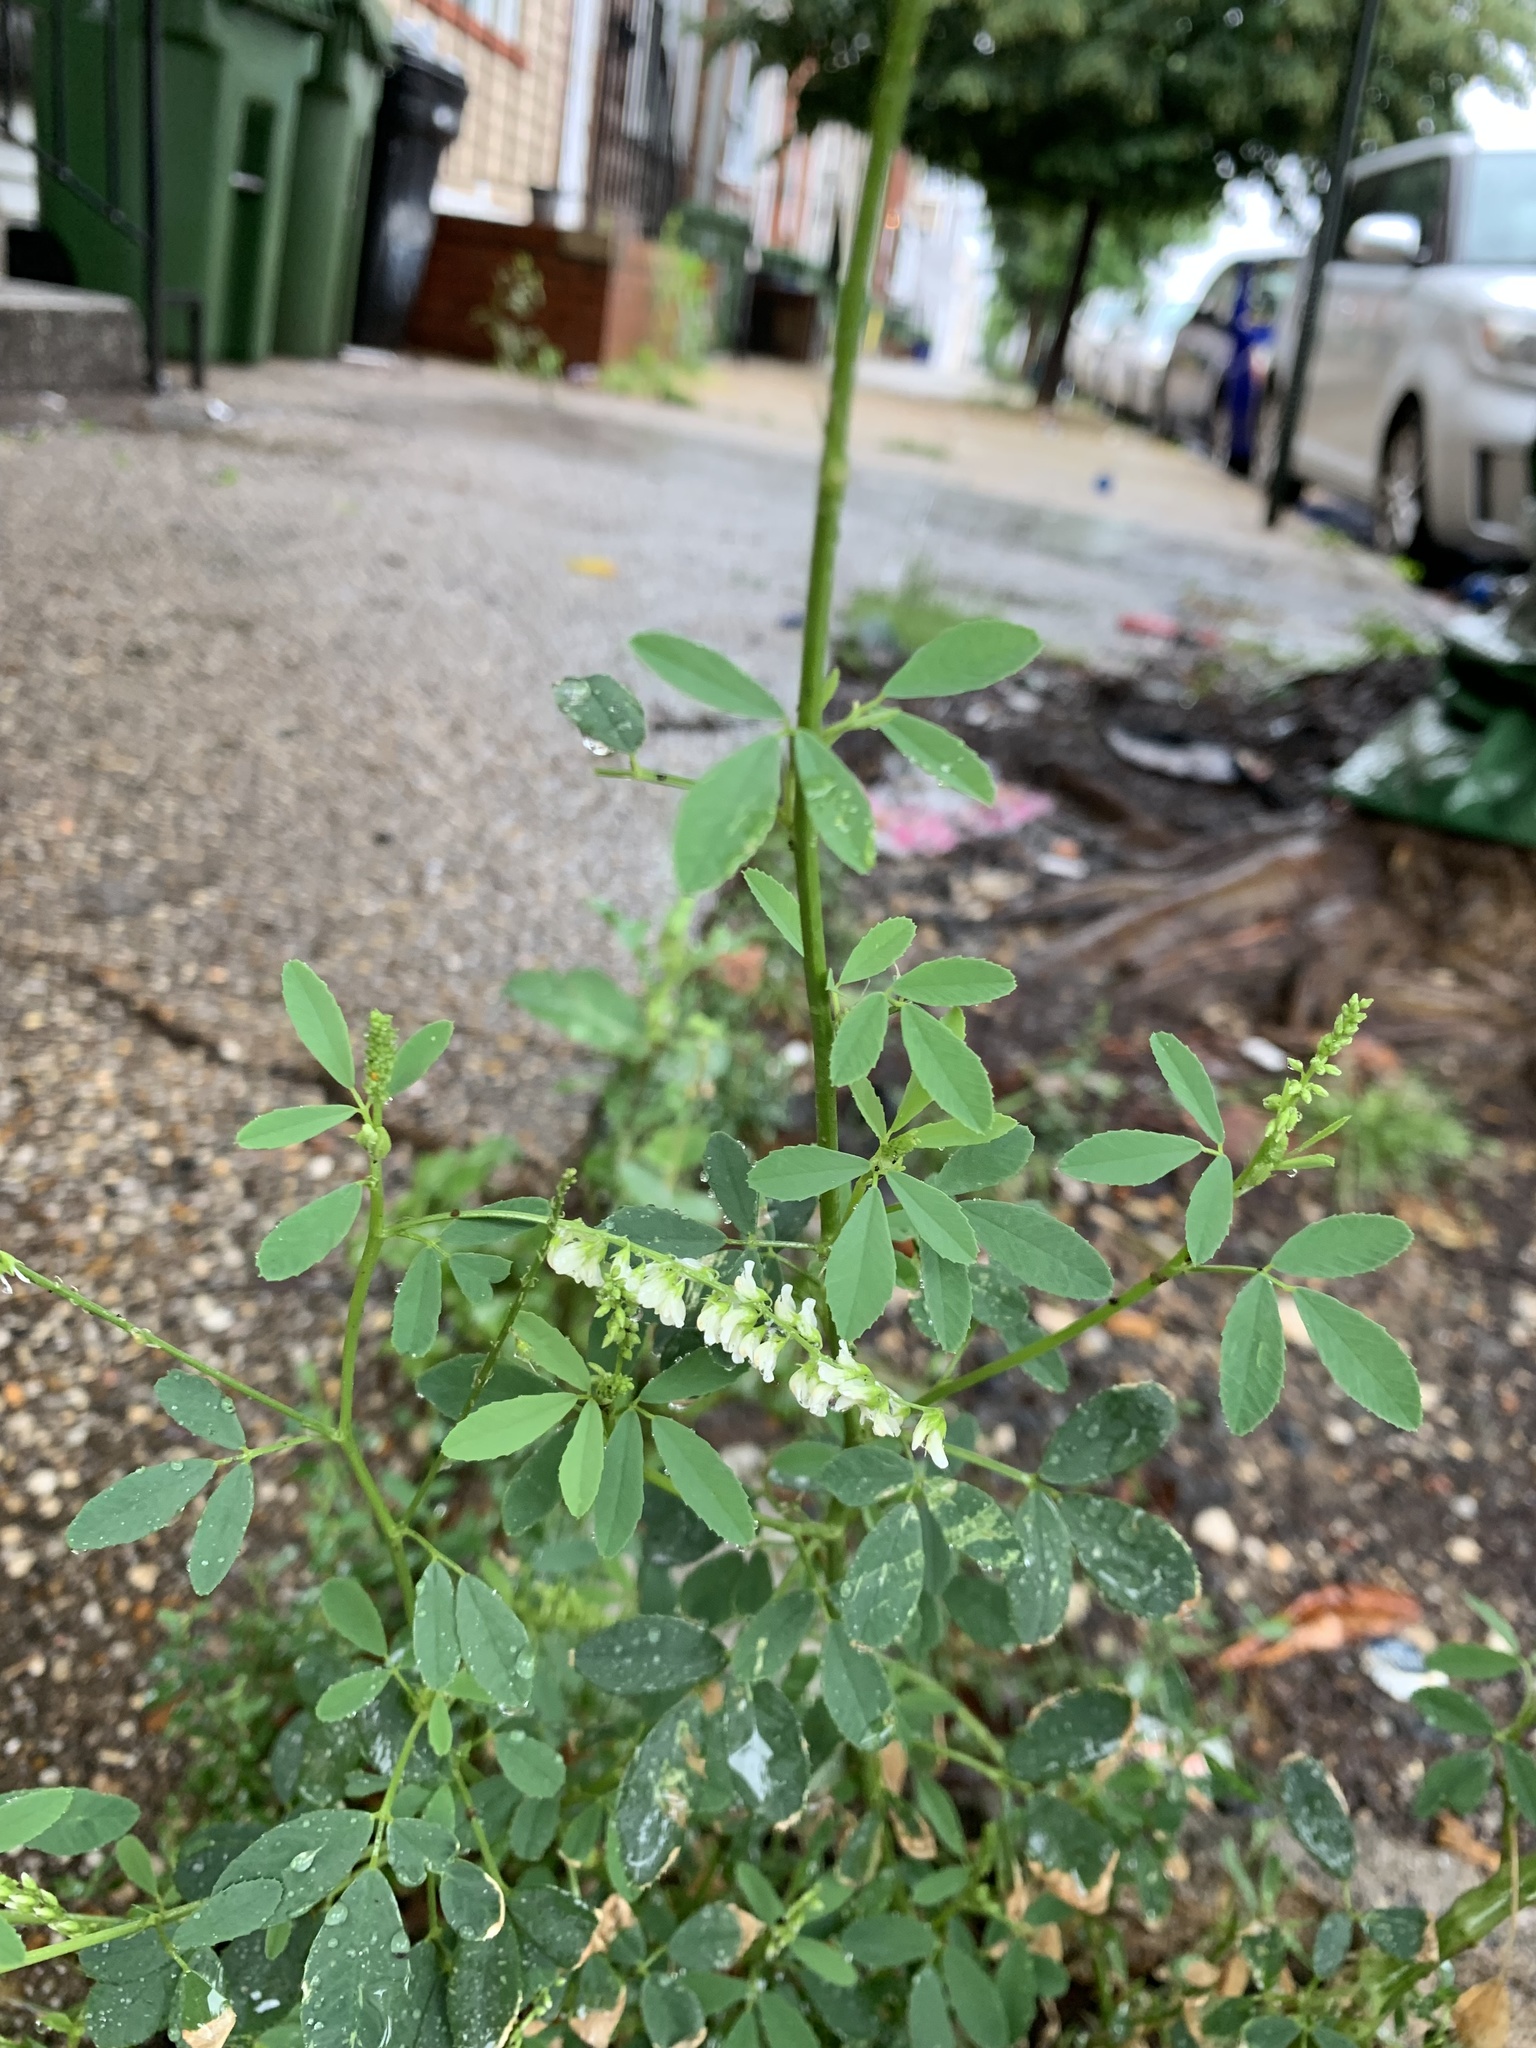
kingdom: Plantae
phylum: Tracheophyta
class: Magnoliopsida
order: Fabales
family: Fabaceae
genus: Melilotus
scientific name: Melilotus albus
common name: White melilot
